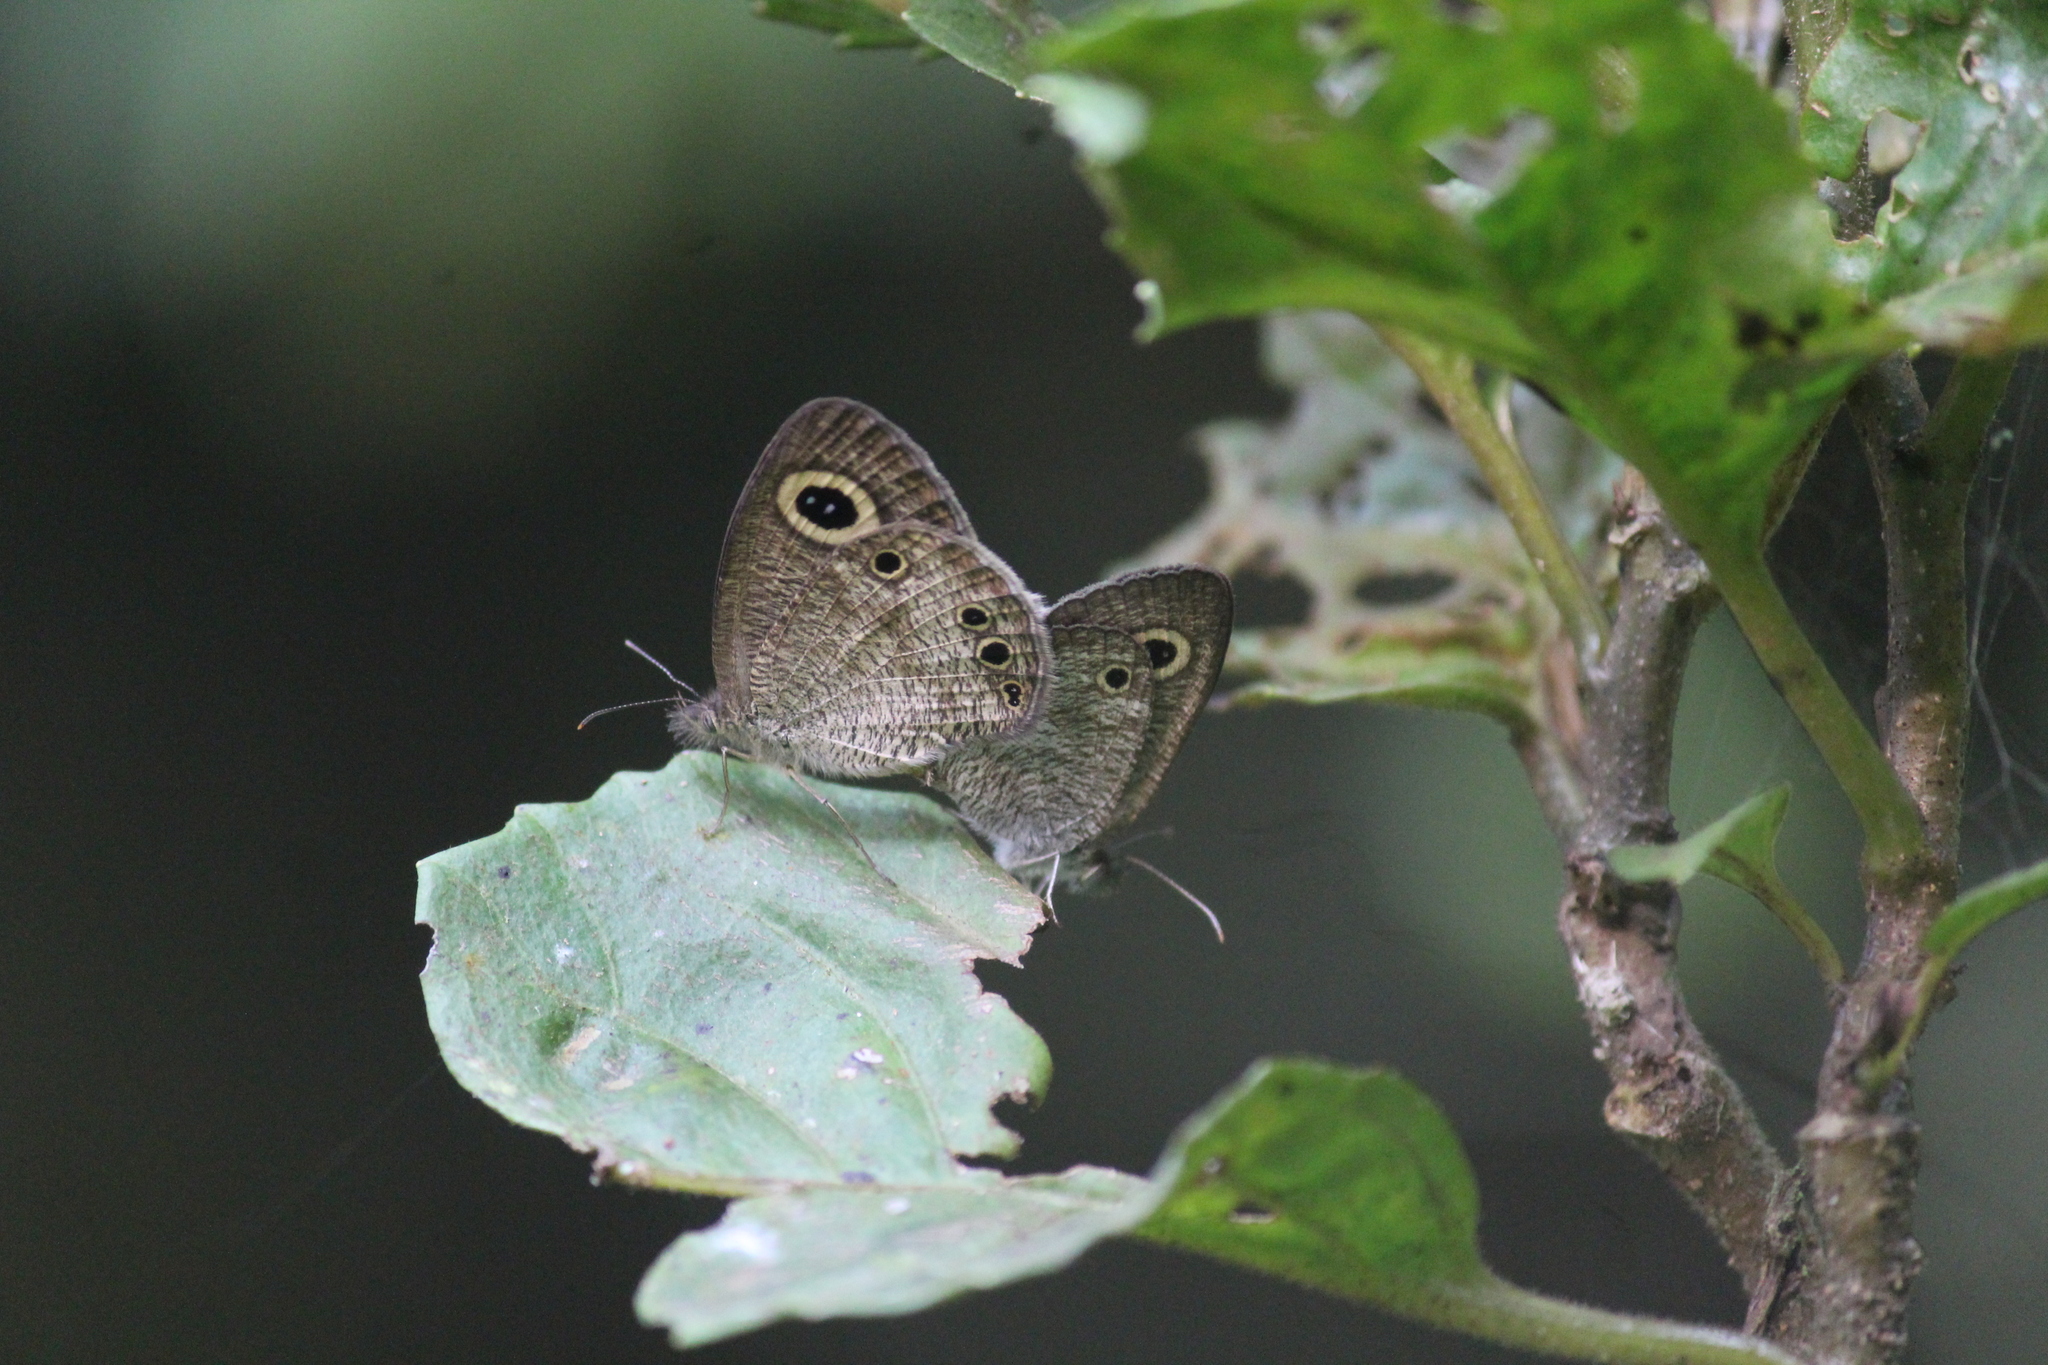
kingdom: Animalia
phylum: Arthropoda
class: Insecta
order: Lepidoptera
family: Nymphalidae
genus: Ypthima
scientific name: Ypthima huebneri
